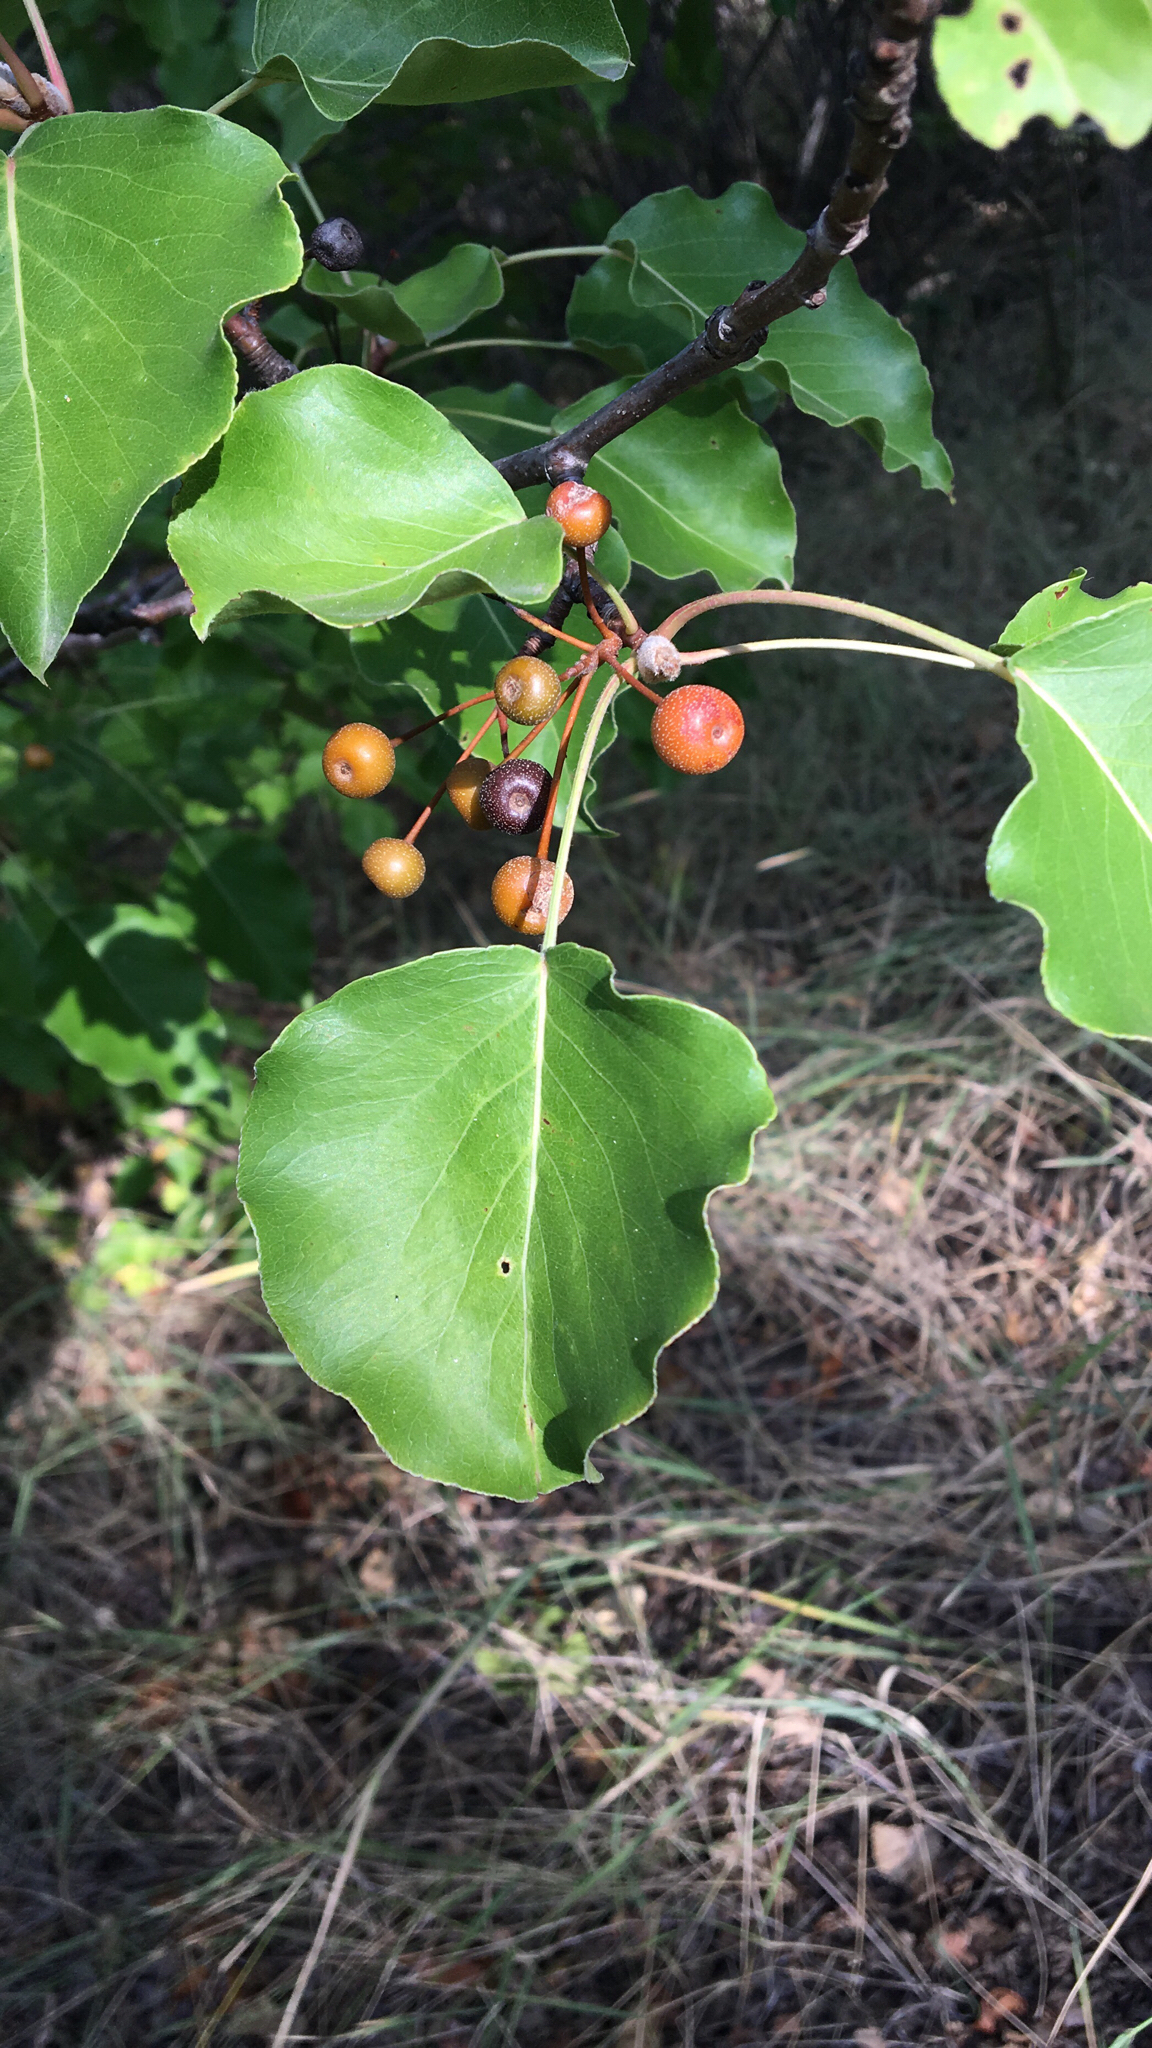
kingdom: Plantae
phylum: Tracheophyta
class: Magnoliopsida
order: Rosales
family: Rosaceae
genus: Pyrus
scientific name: Pyrus calleryana
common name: Callery pear
